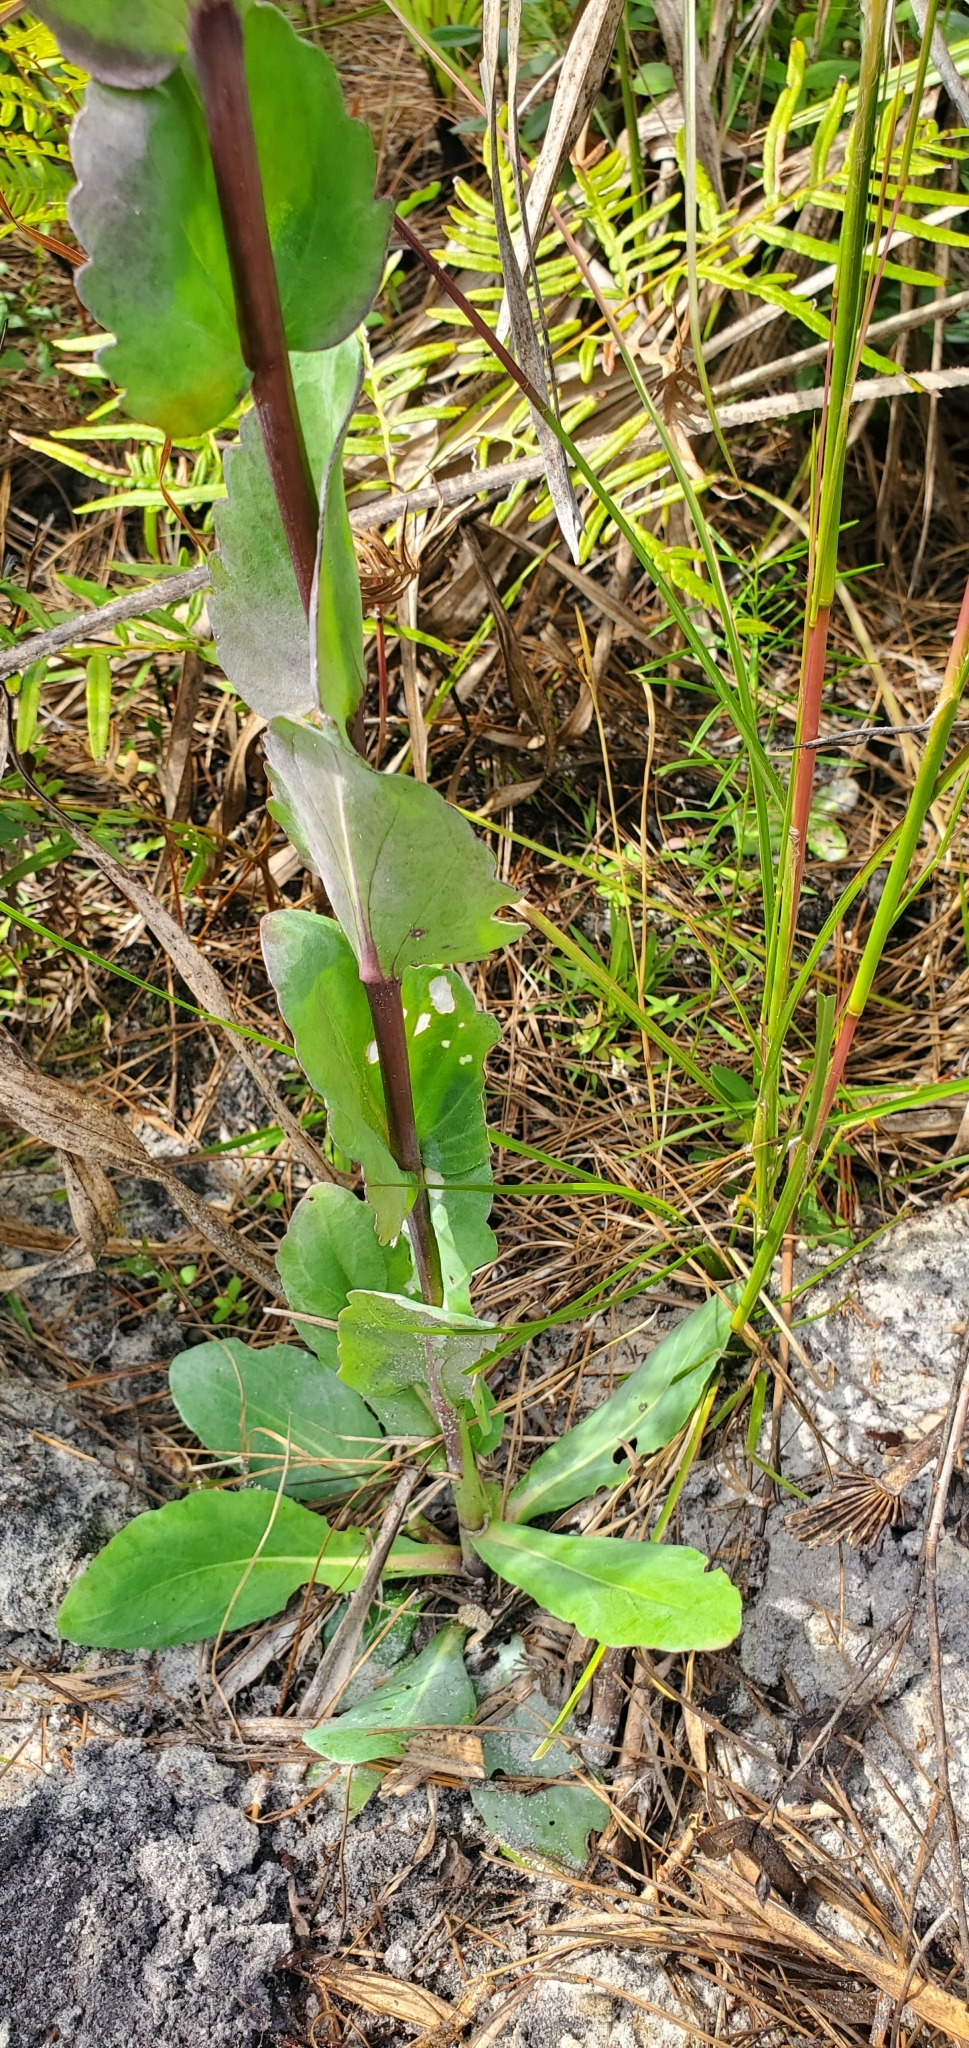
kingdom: Plantae
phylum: Tracheophyta
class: Magnoliopsida
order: Asterales
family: Asteraceae
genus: Carphephorus
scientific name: Carphephorus odoratissimus
